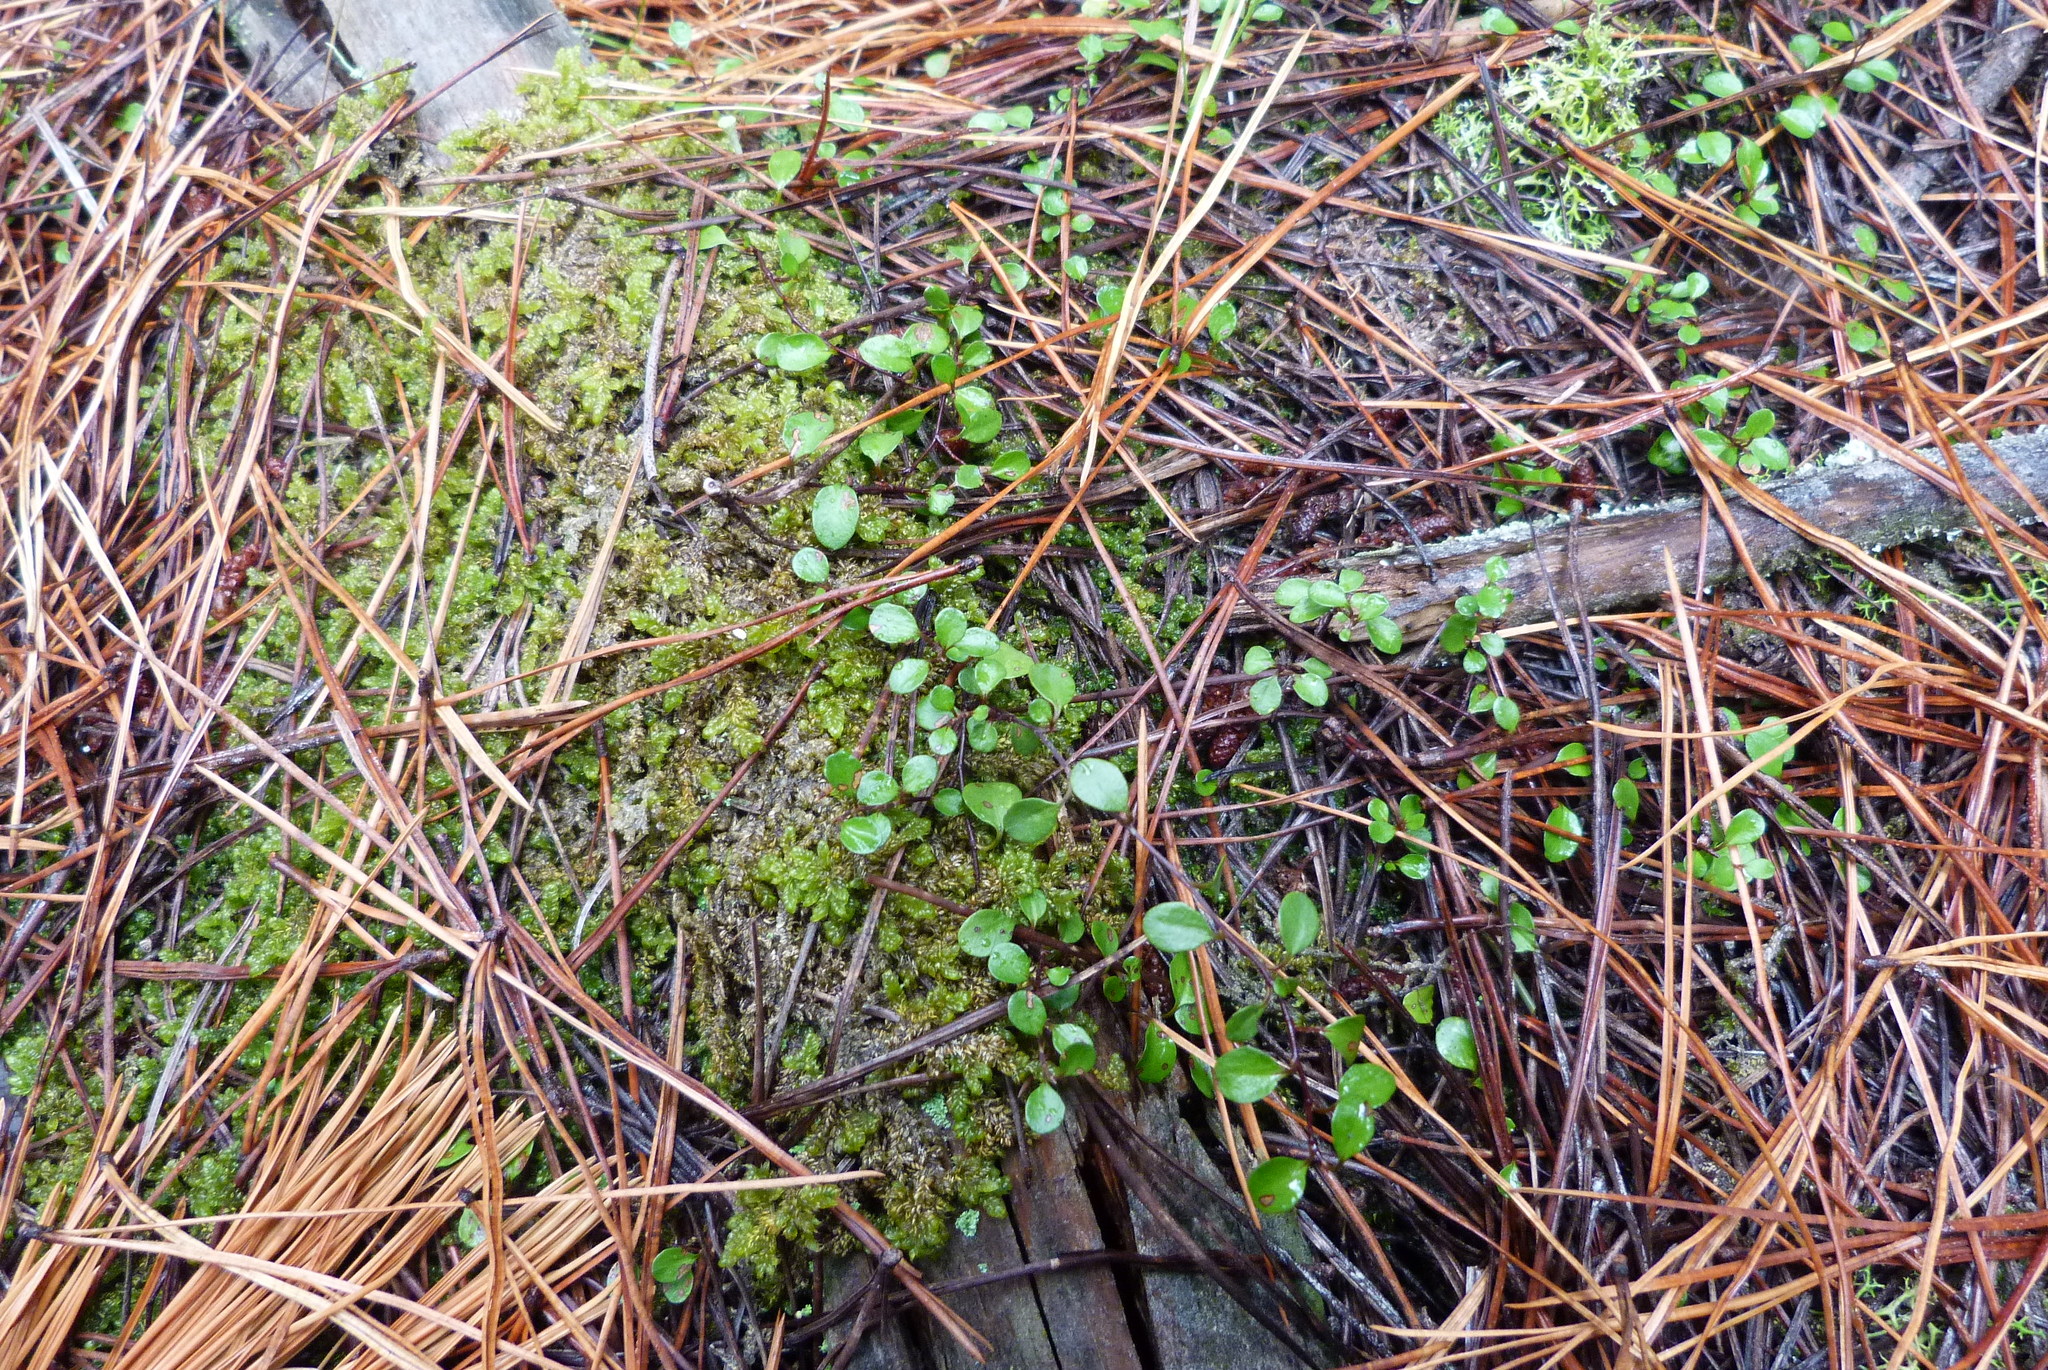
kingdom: Plantae
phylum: Tracheophyta
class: Magnoliopsida
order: Caryophyllales
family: Polygonaceae
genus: Muehlenbeckia
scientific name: Muehlenbeckia axillaris
